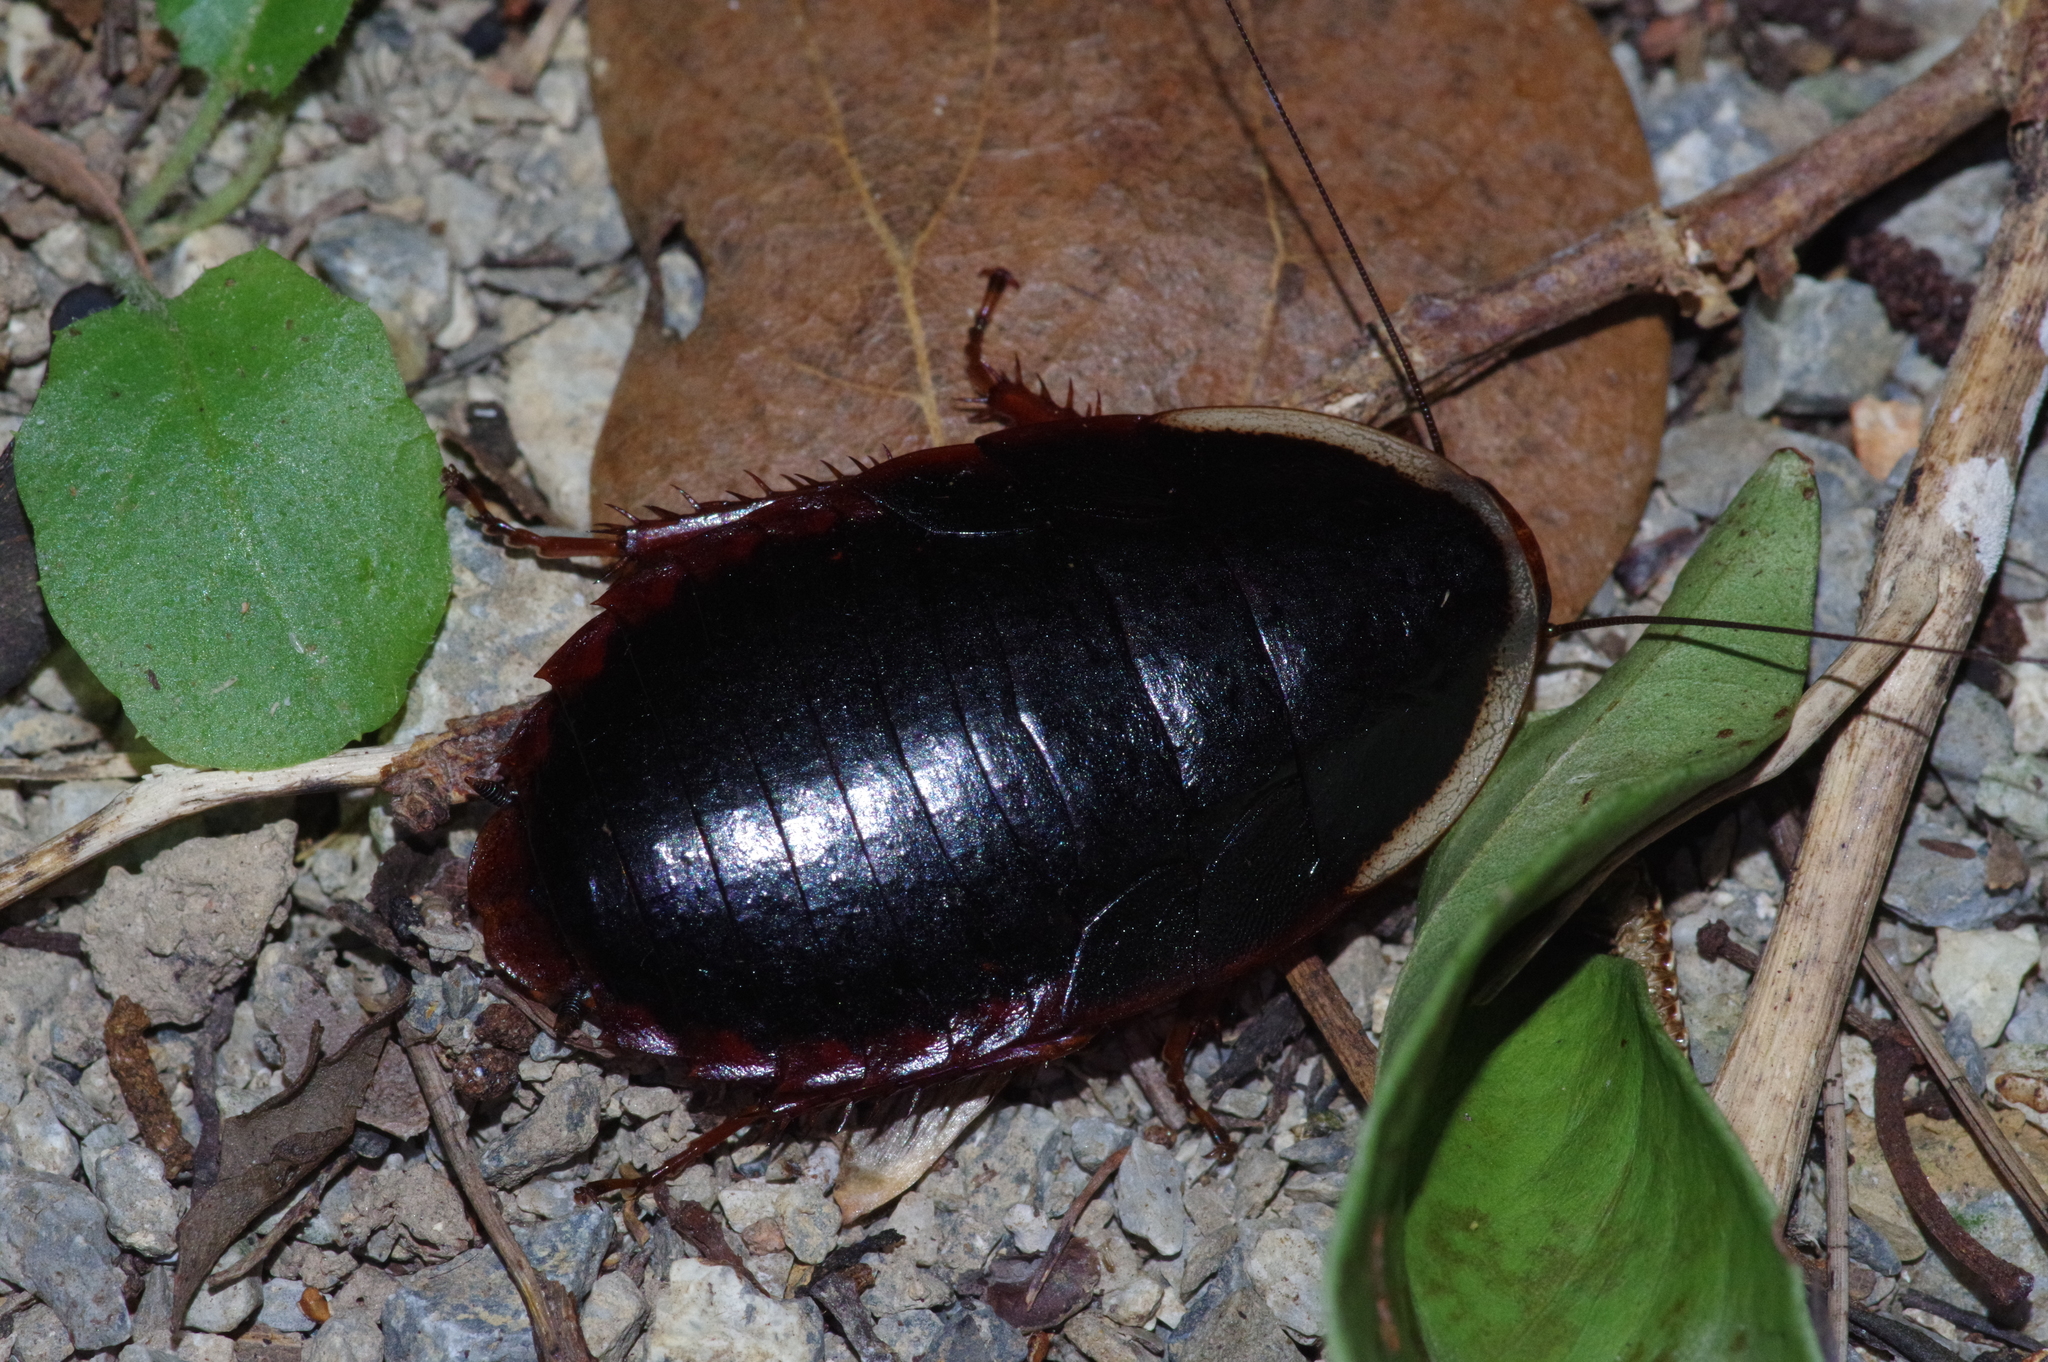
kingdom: Animalia
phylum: Arthropoda
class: Insecta
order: Blattodea
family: Blaberidae
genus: Opisthoplatia
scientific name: Opisthoplatia orientalis
